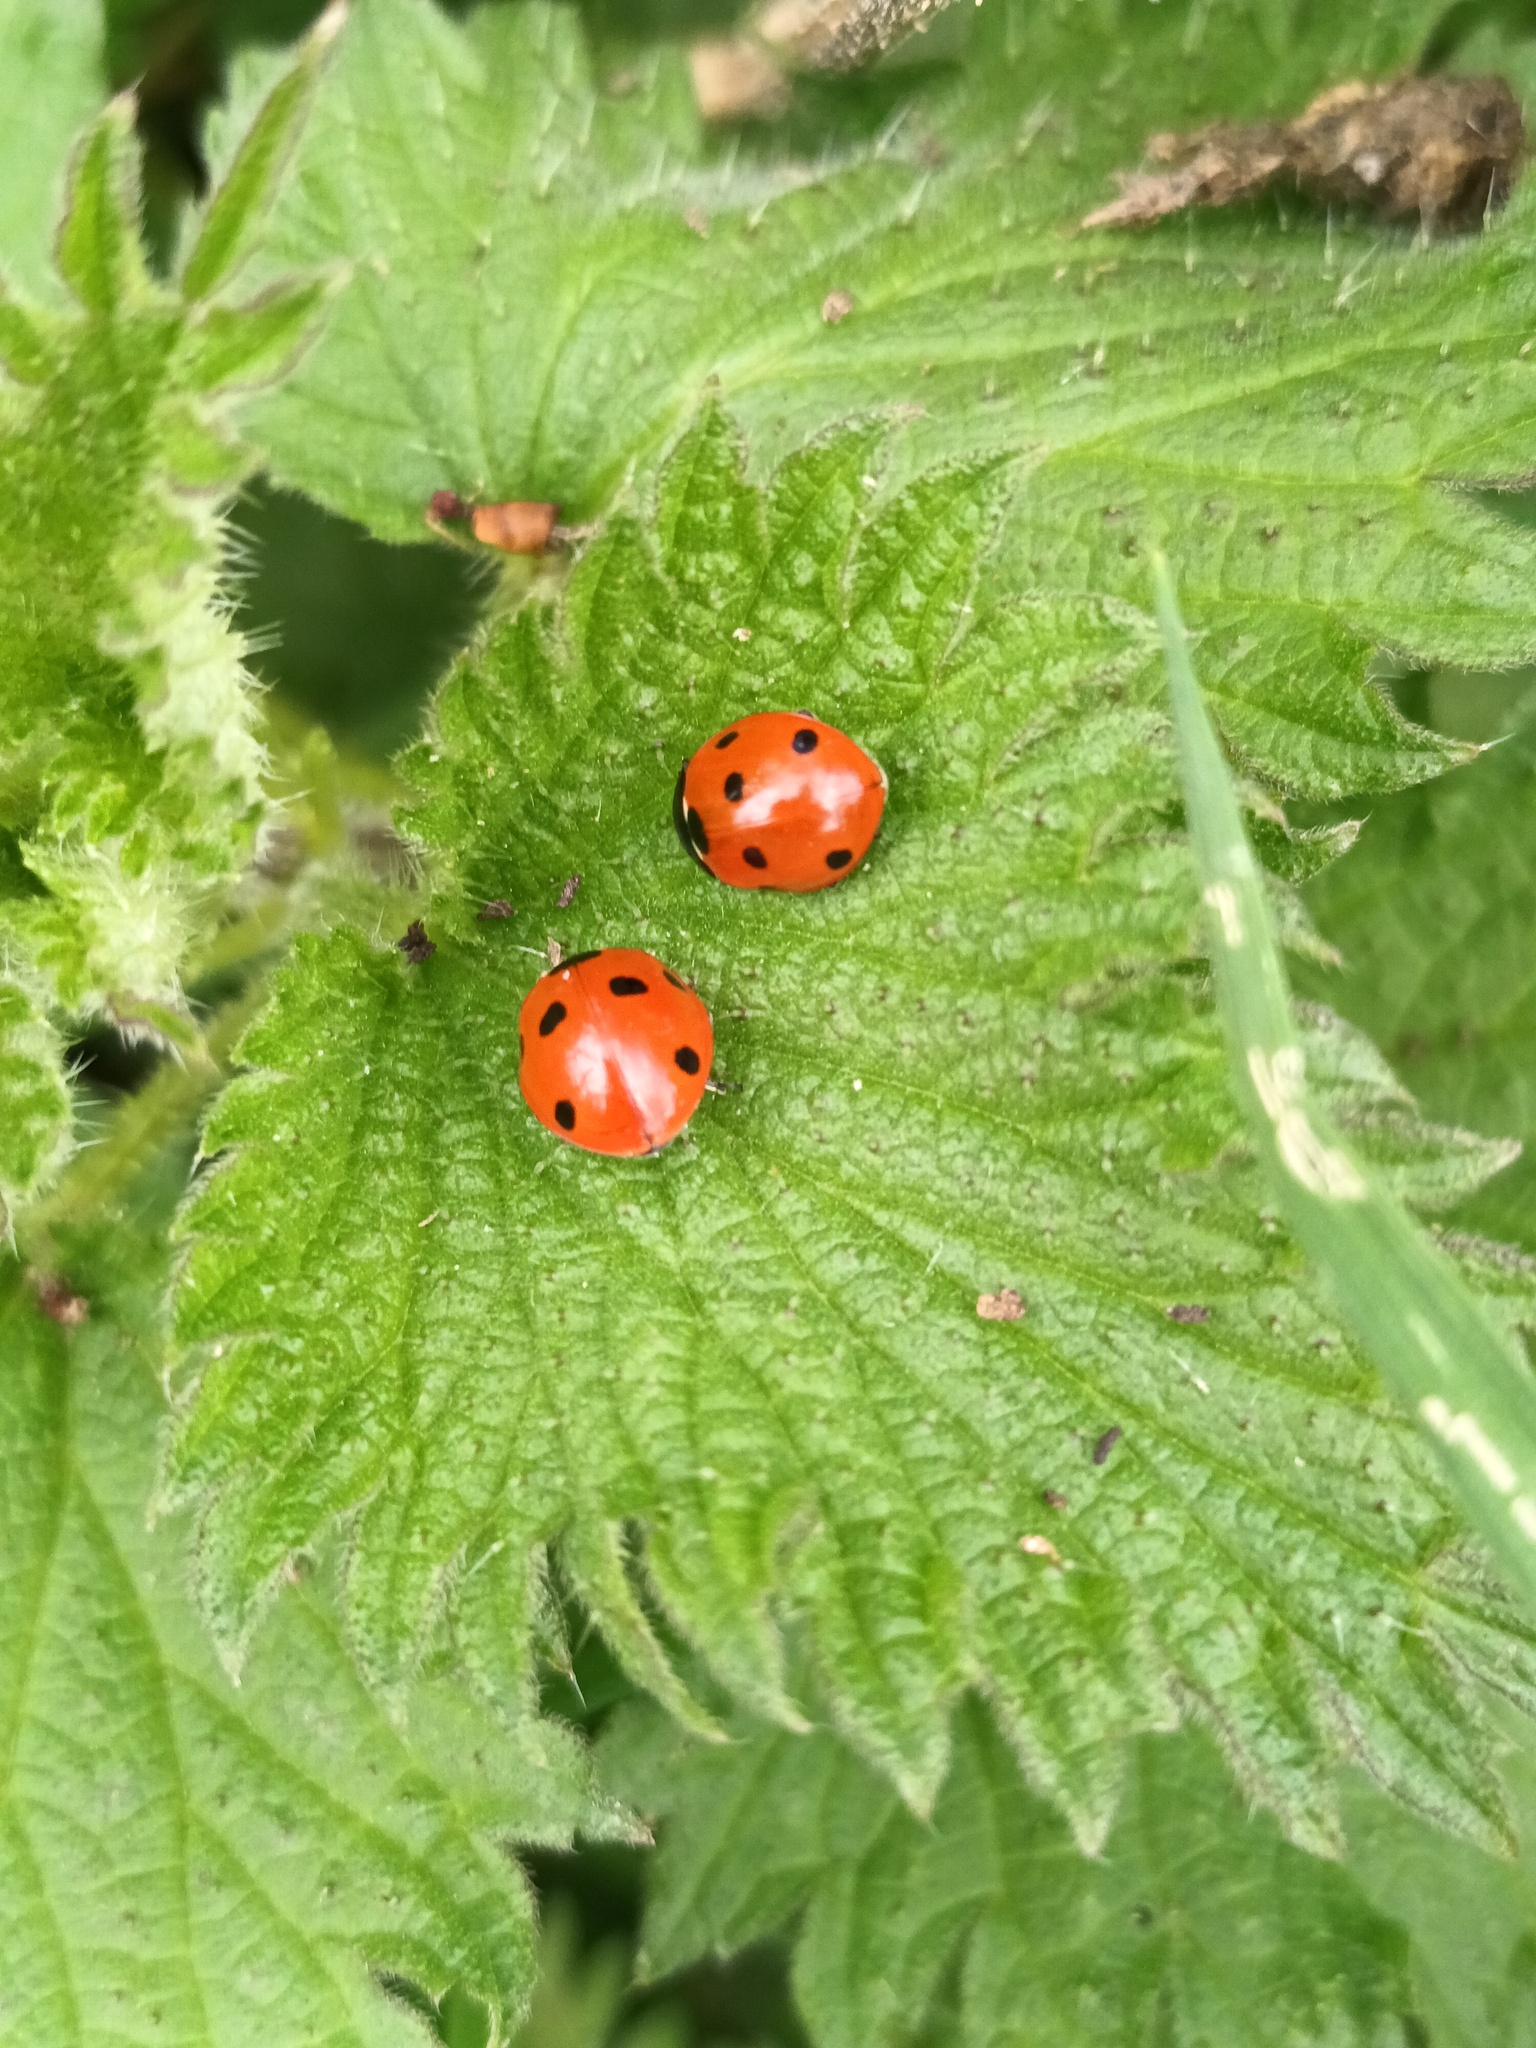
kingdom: Animalia
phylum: Arthropoda
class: Insecta
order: Coleoptera
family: Coccinellidae
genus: Coccinella
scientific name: Coccinella septempunctata
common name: Sevenspotted lady beetle
